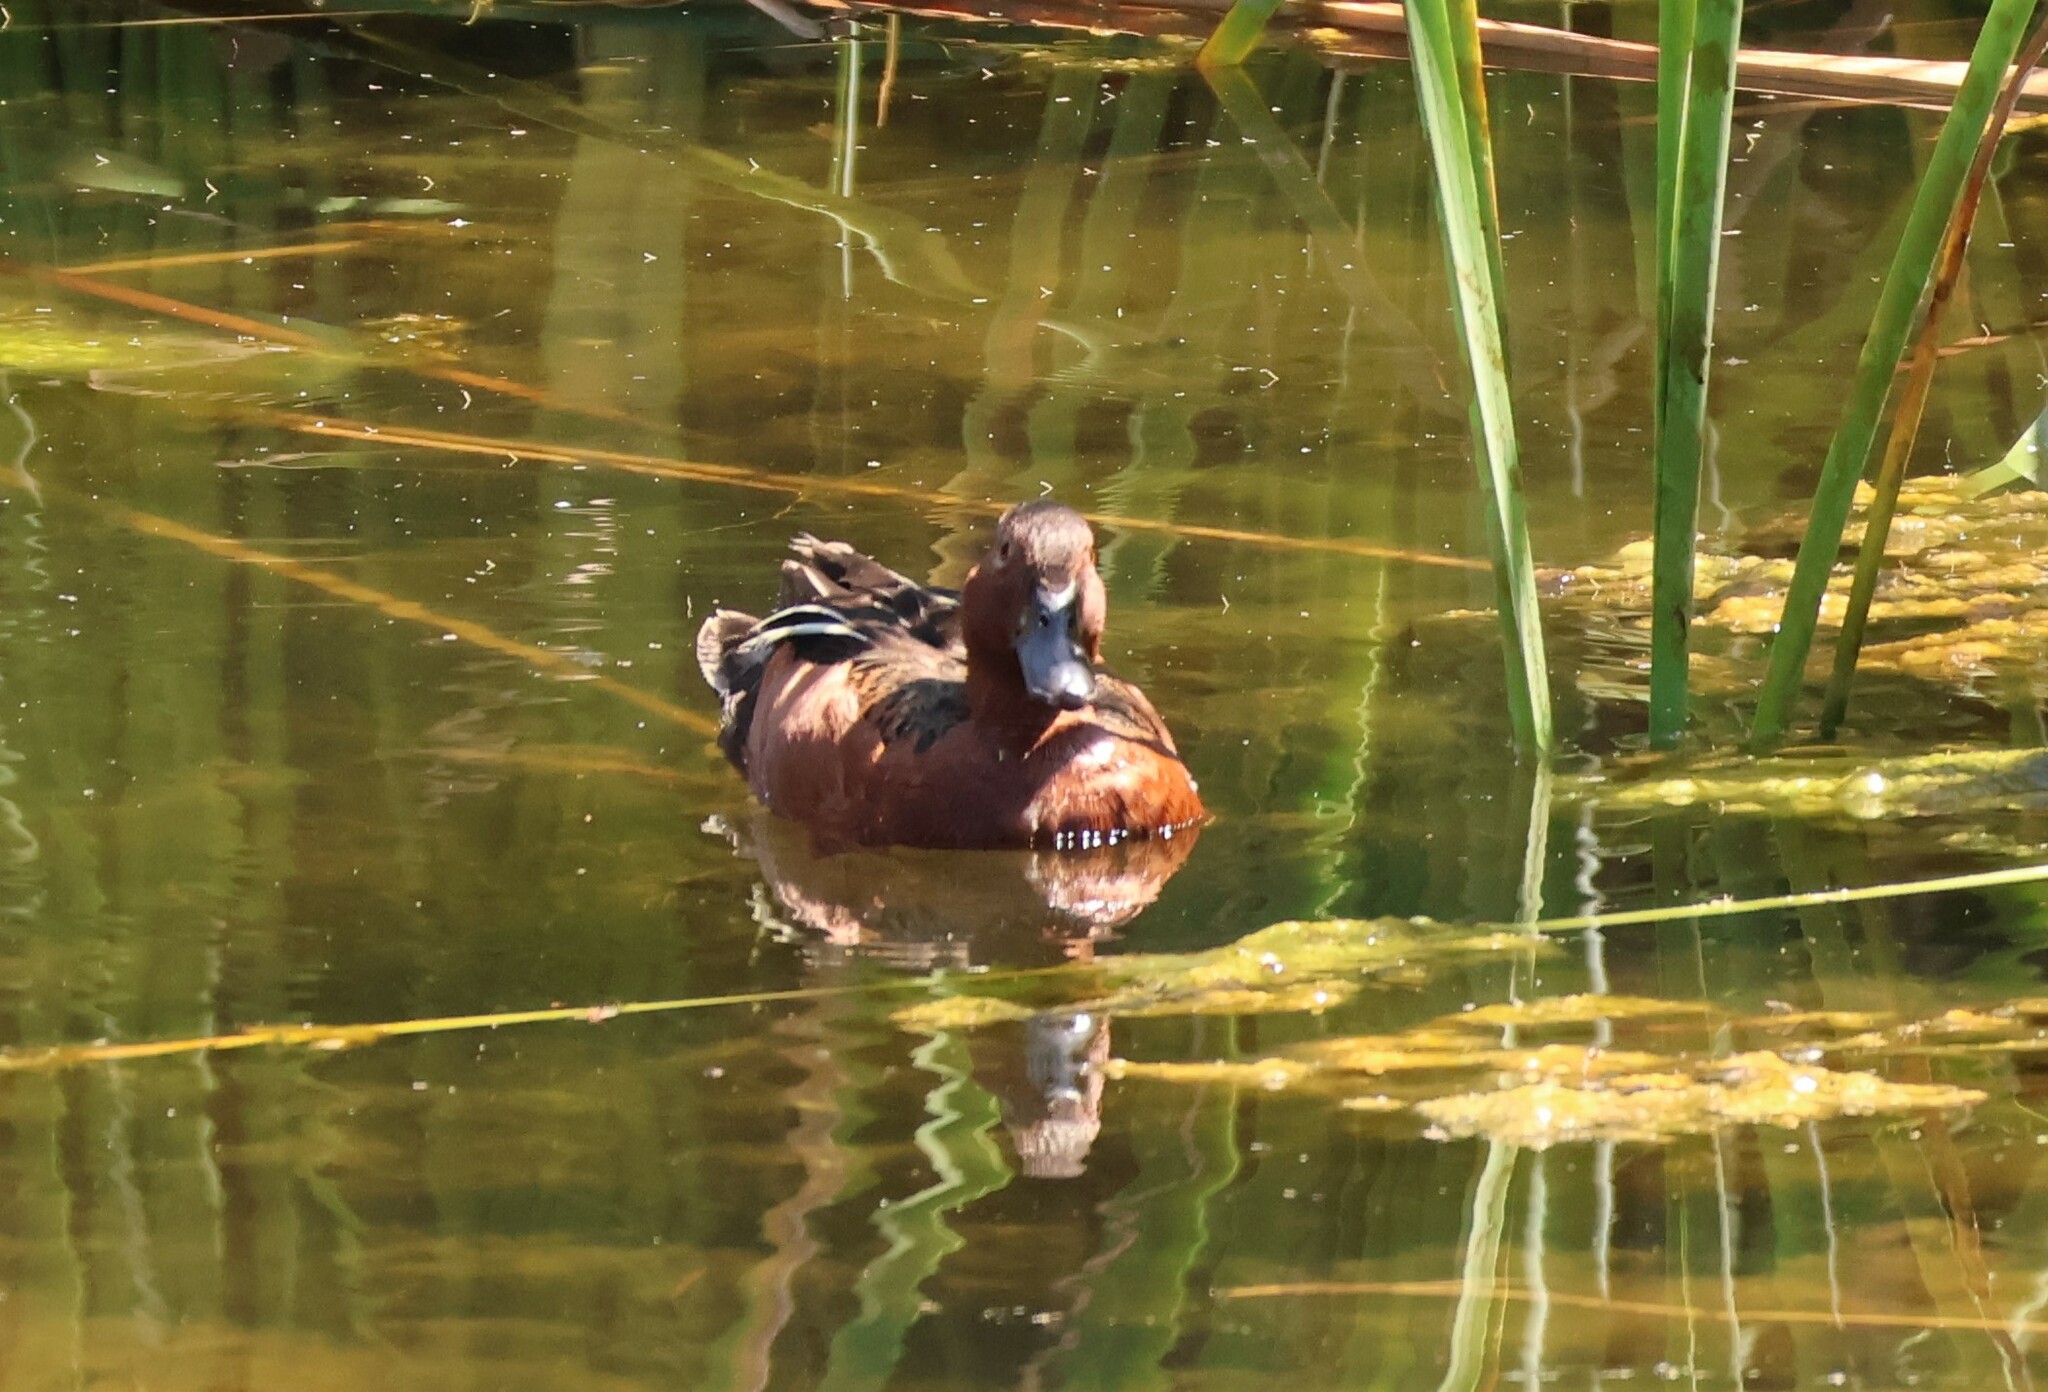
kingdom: Animalia
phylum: Chordata
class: Aves
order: Anseriformes
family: Anatidae
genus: Spatula
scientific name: Spatula cyanoptera
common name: Cinnamon teal
